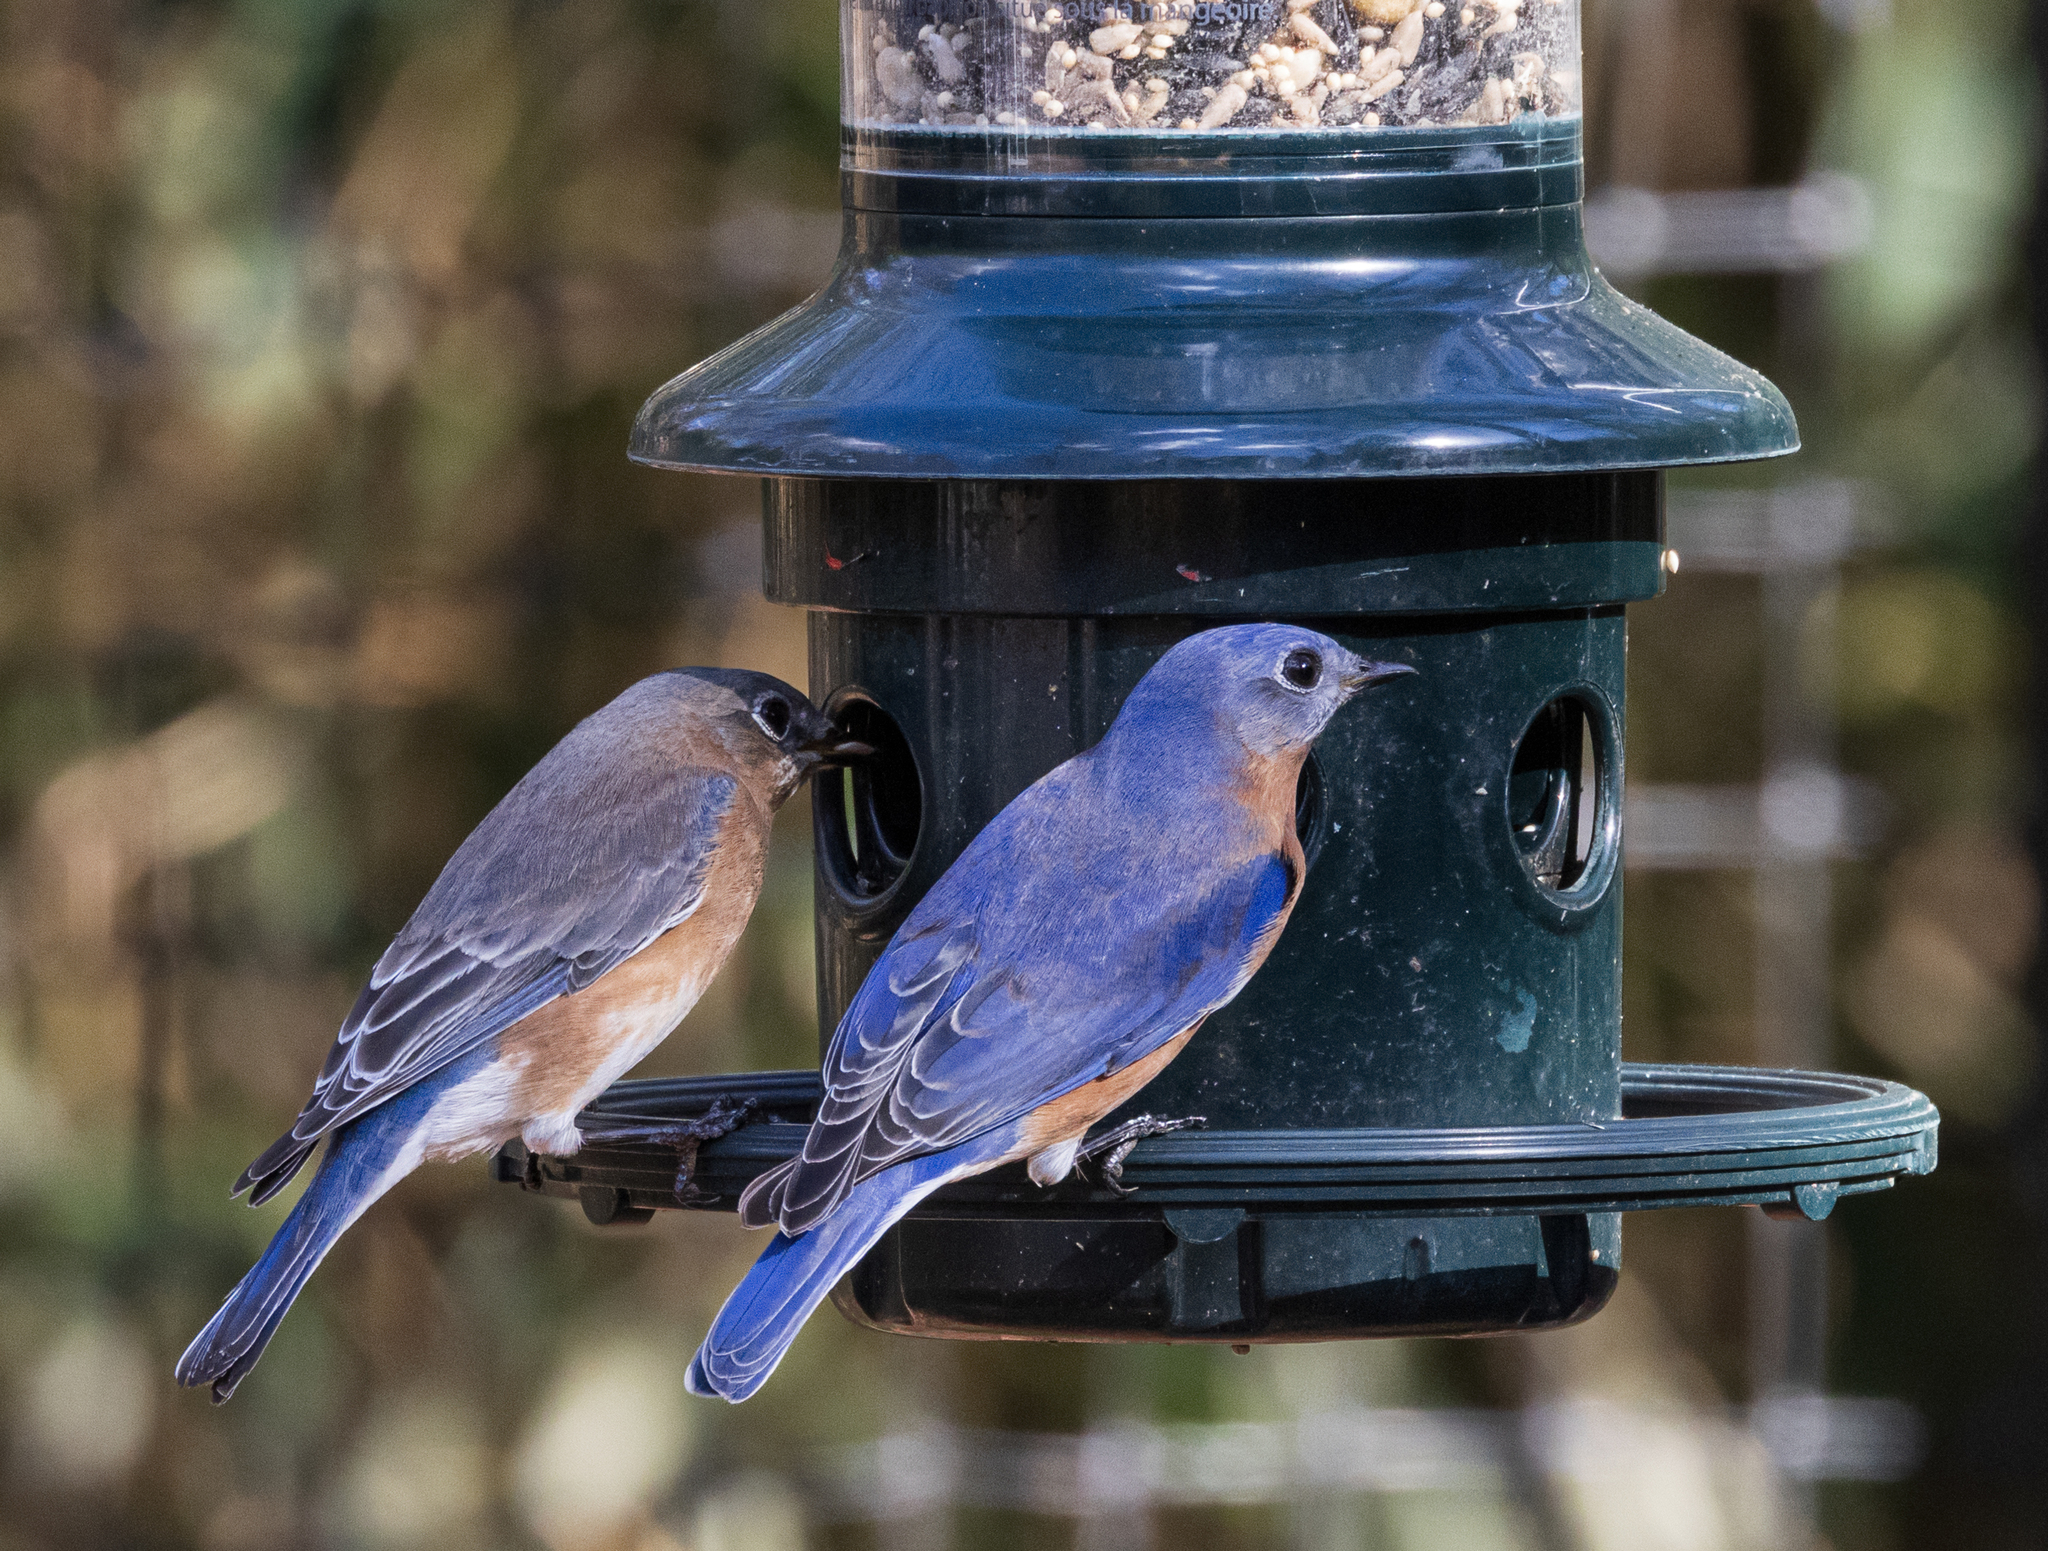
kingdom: Animalia
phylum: Chordata
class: Aves
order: Passeriformes
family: Turdidae
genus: Sialia
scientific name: Sialia sialis
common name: Eastern bluebird
